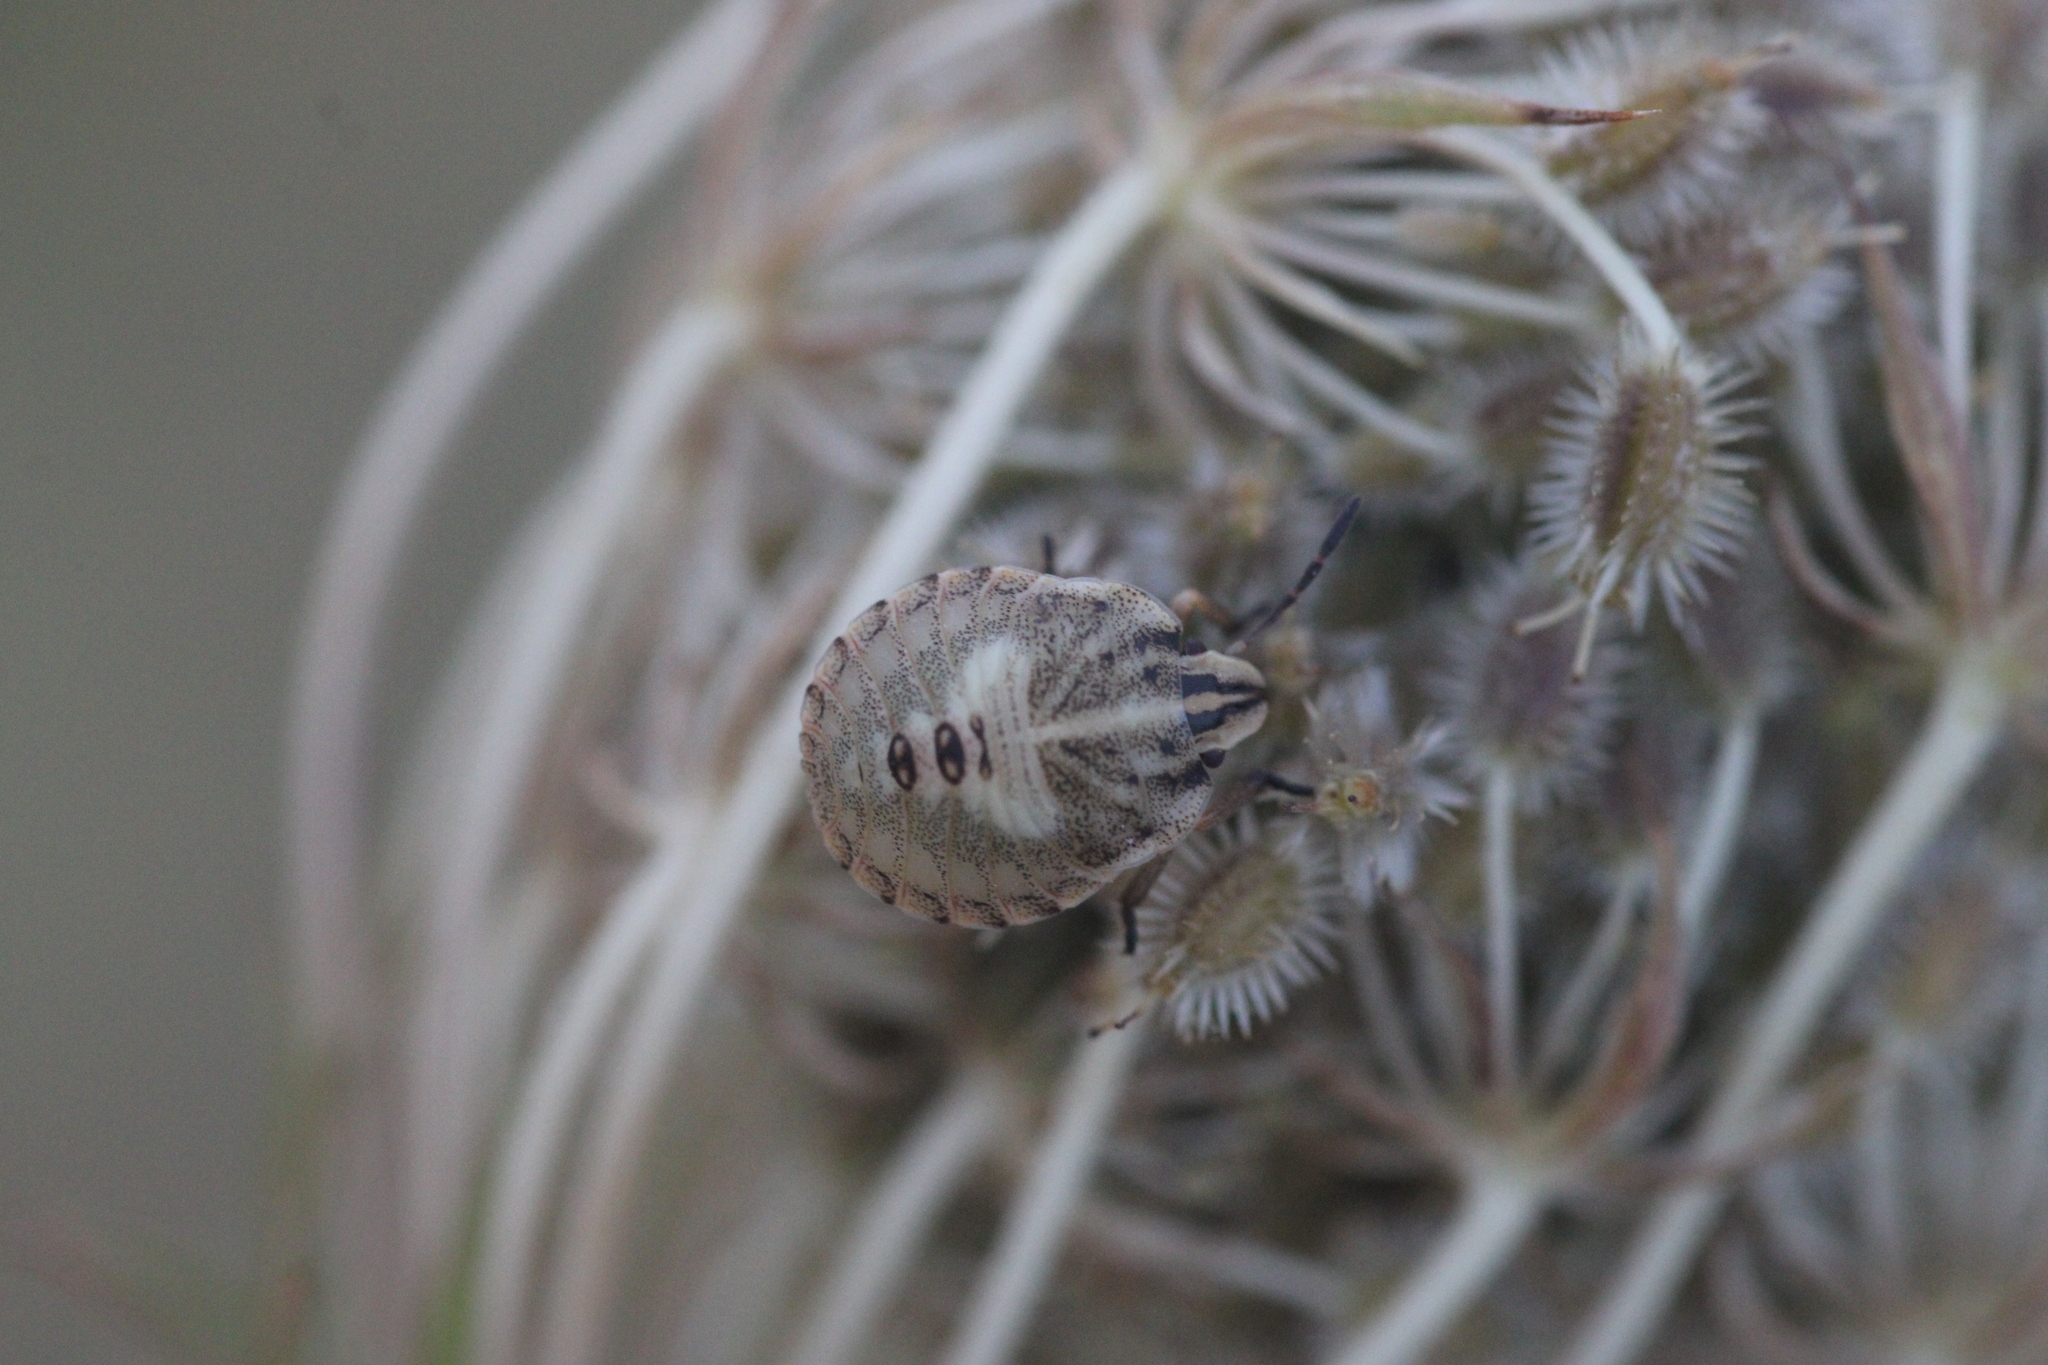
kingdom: Animalia
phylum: Arthropoda
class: Insecta
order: Hemiptera
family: Pentatomidae
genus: Graphosoma
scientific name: Graphosoma italicum
